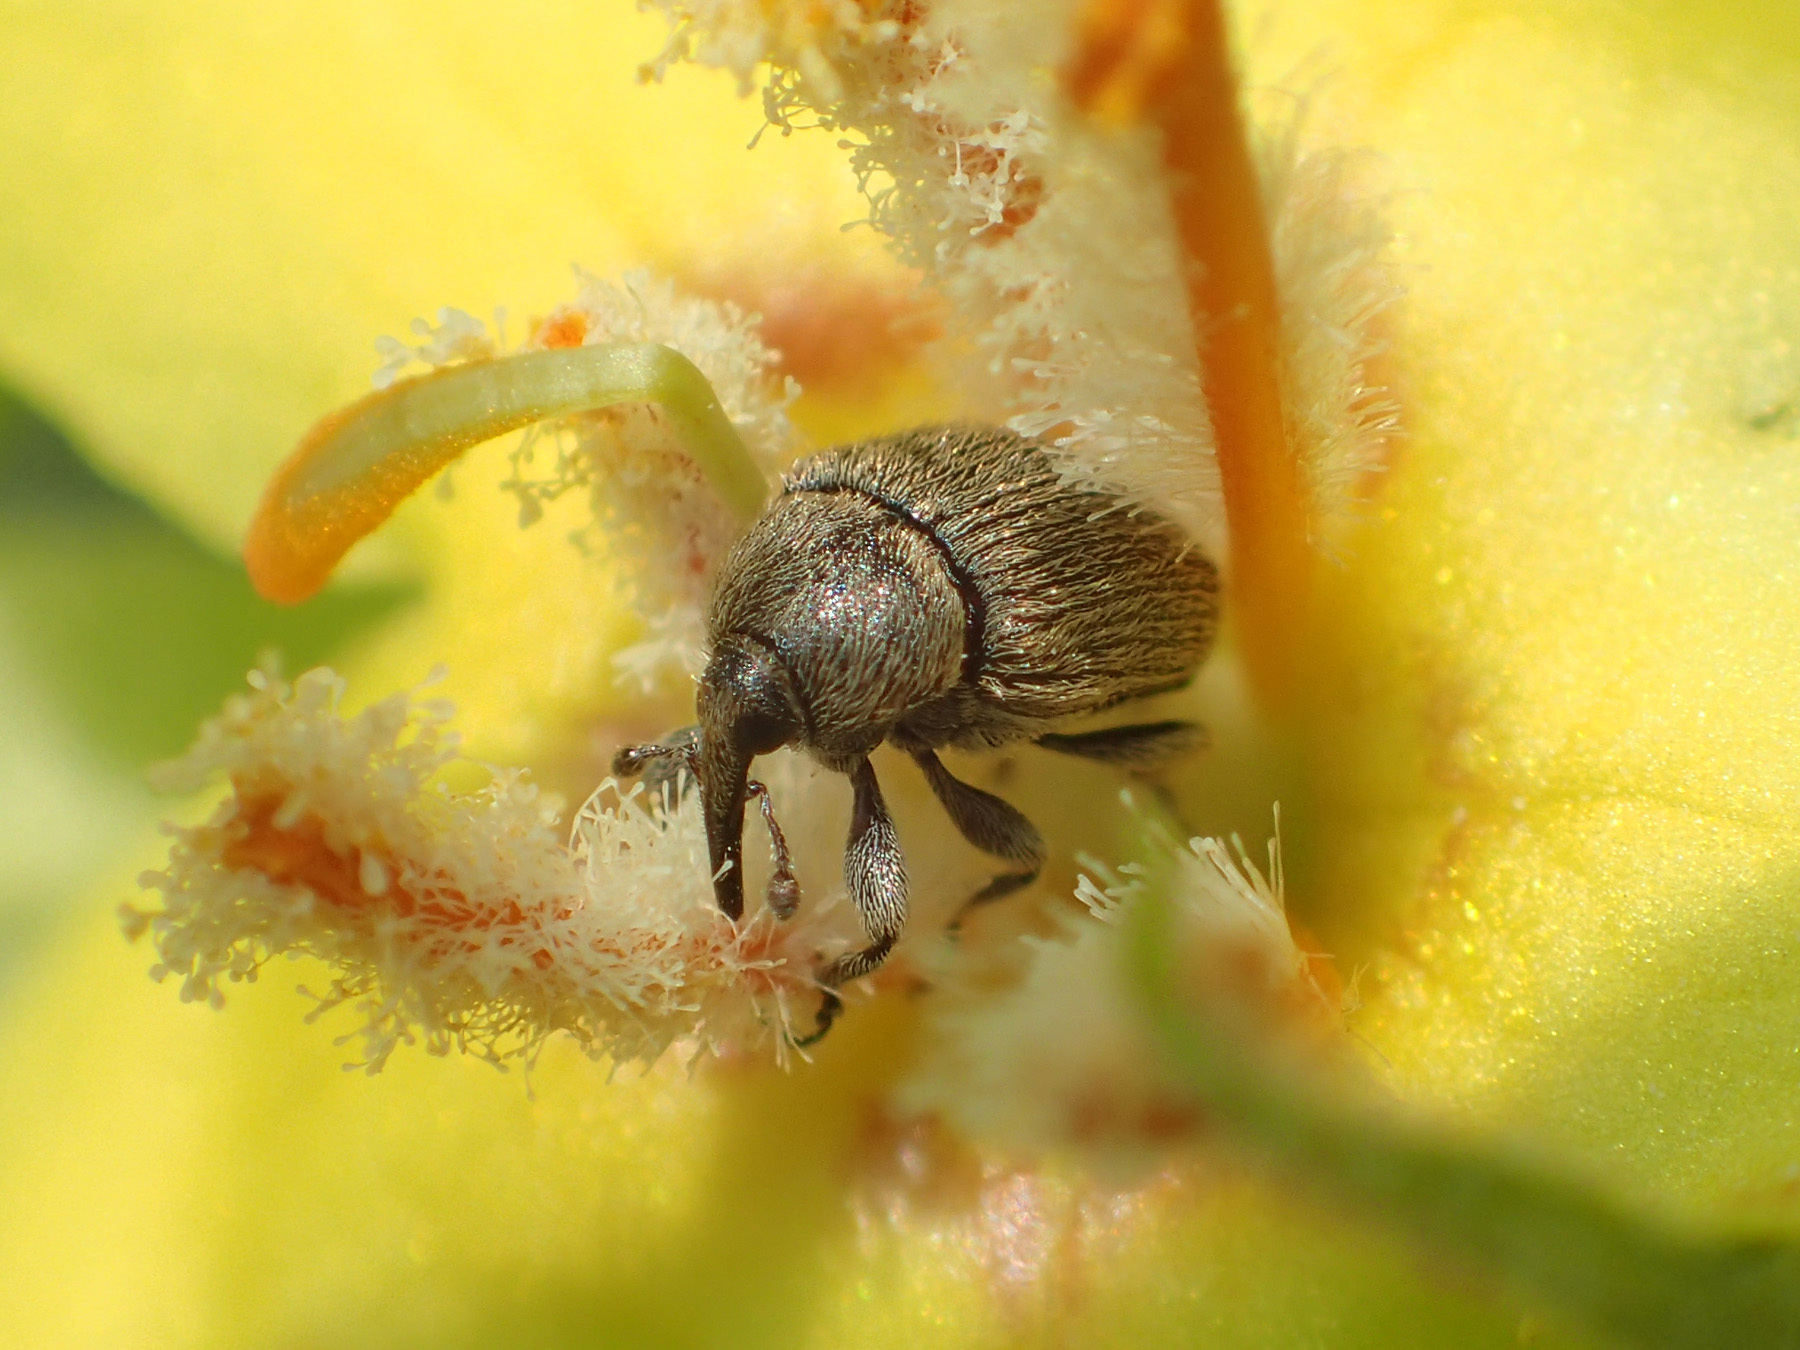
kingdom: Animalia
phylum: Arthropoda
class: Insecta
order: Coleoptera
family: Curculionidae
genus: Rhinusa
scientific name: Rhinusa tetra
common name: Weevil
